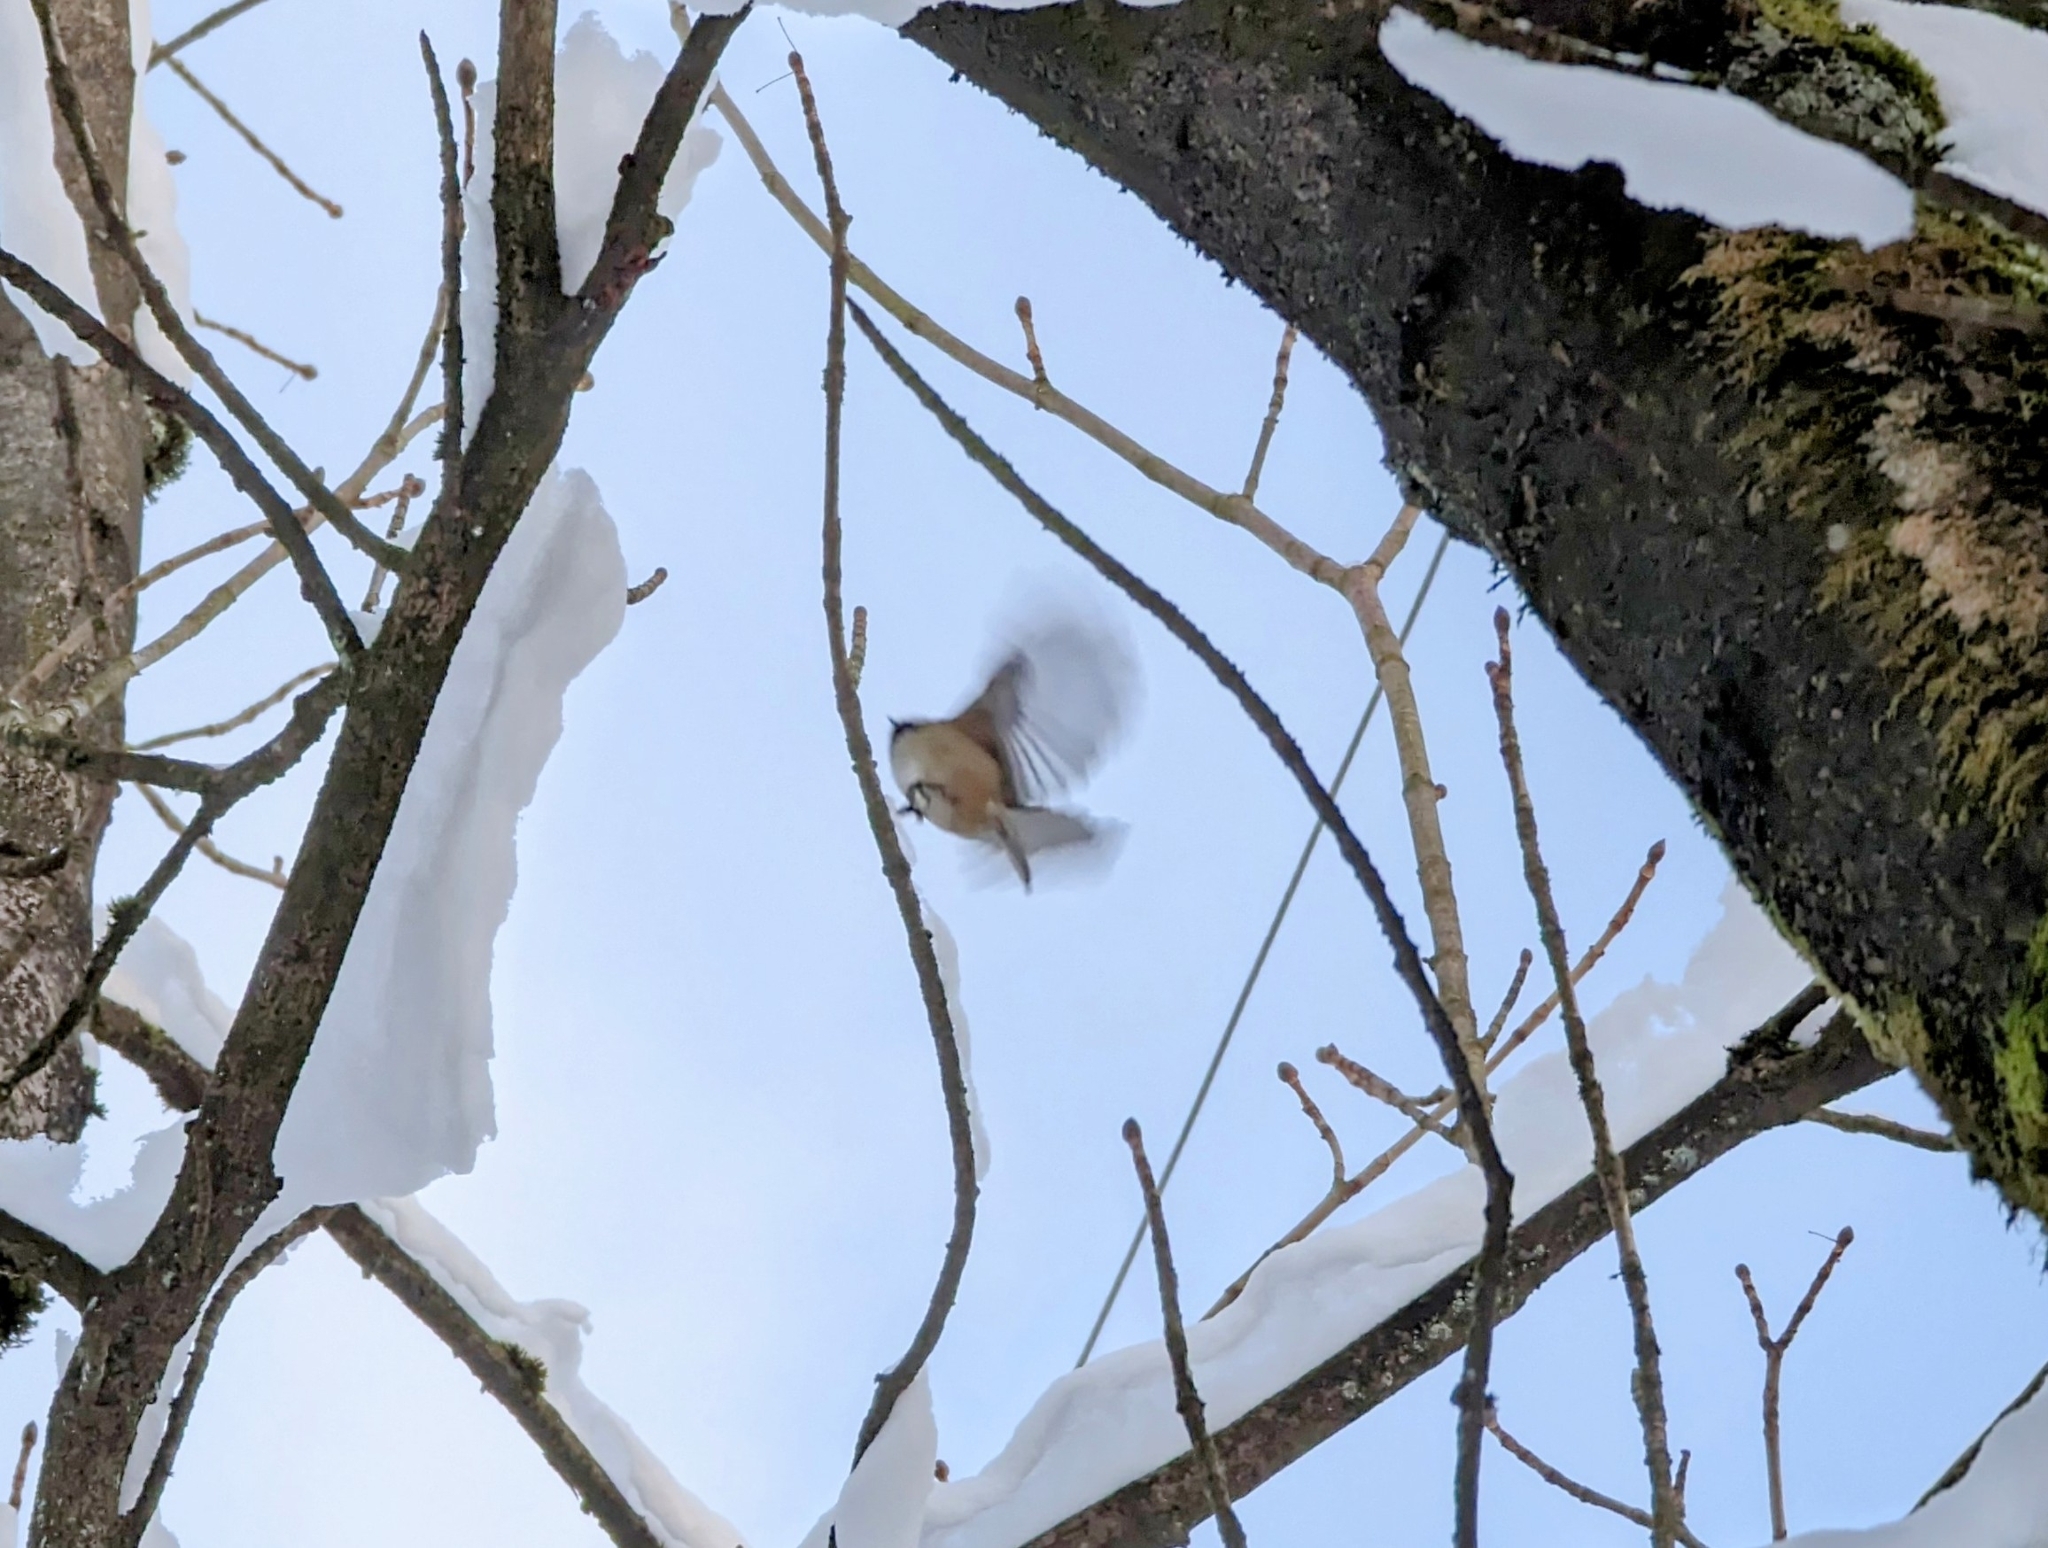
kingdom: Animalia
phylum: Chordata
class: Aves
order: Passeriformes
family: Paridae
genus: Poecile
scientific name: Poecile atricapillus
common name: Black-capped chickadee
